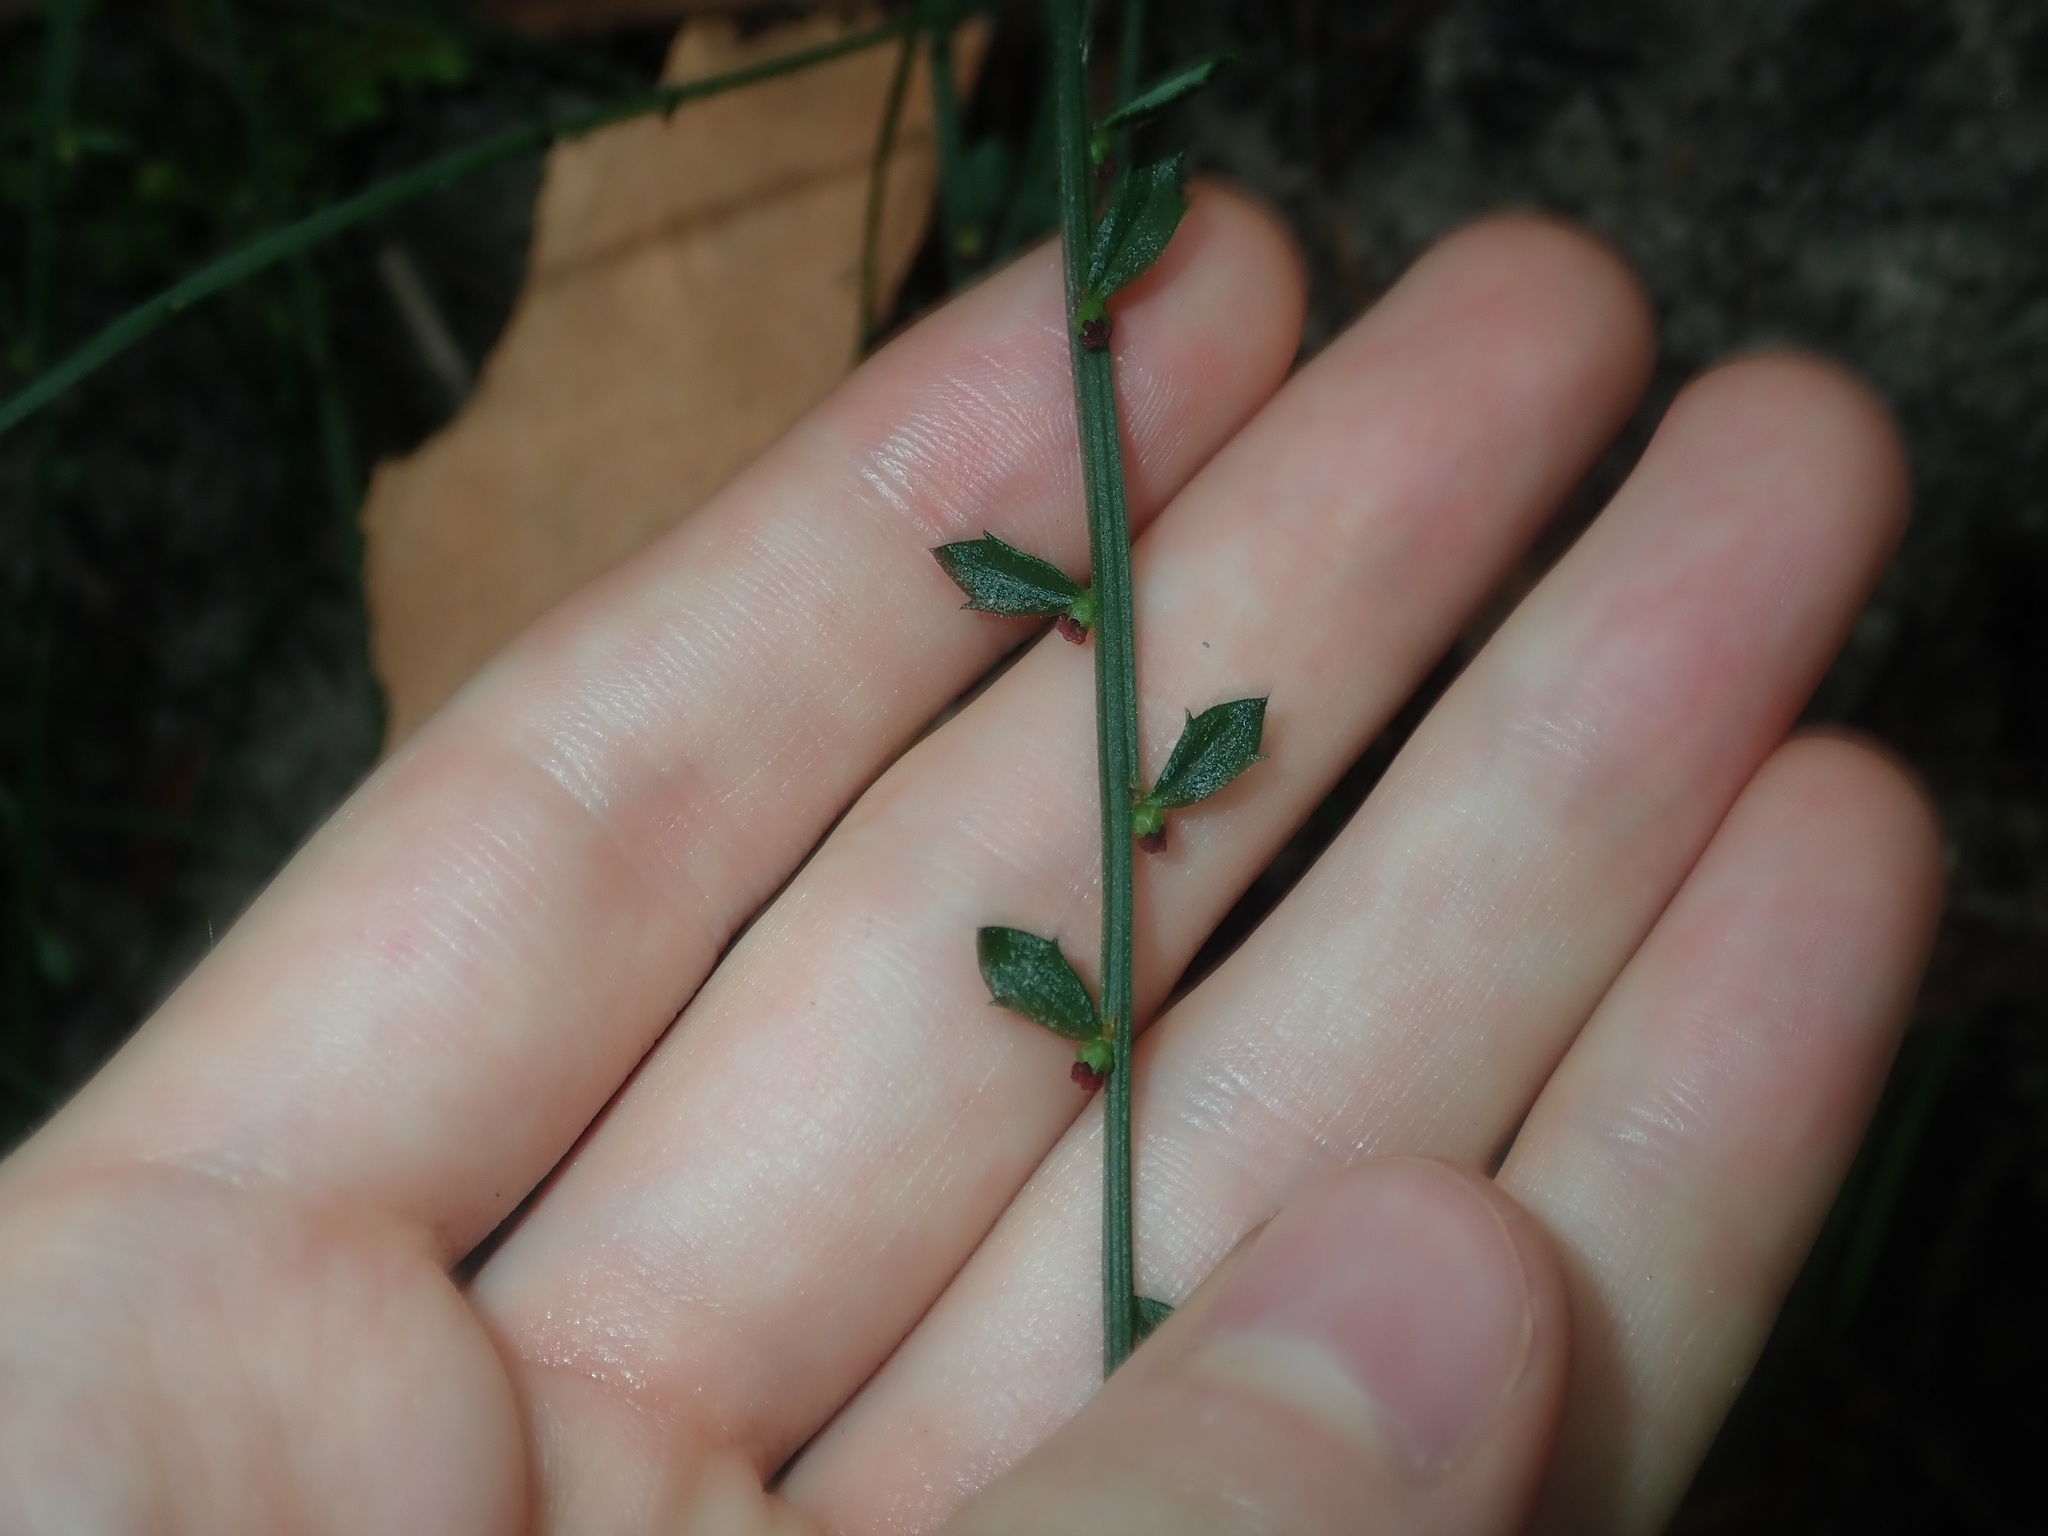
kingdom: Plantae
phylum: Tracheophyta
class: Magnoliopsida
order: Malpighiales
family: Euphorbiaceae
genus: Amperea
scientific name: Amperea xiphoclada
